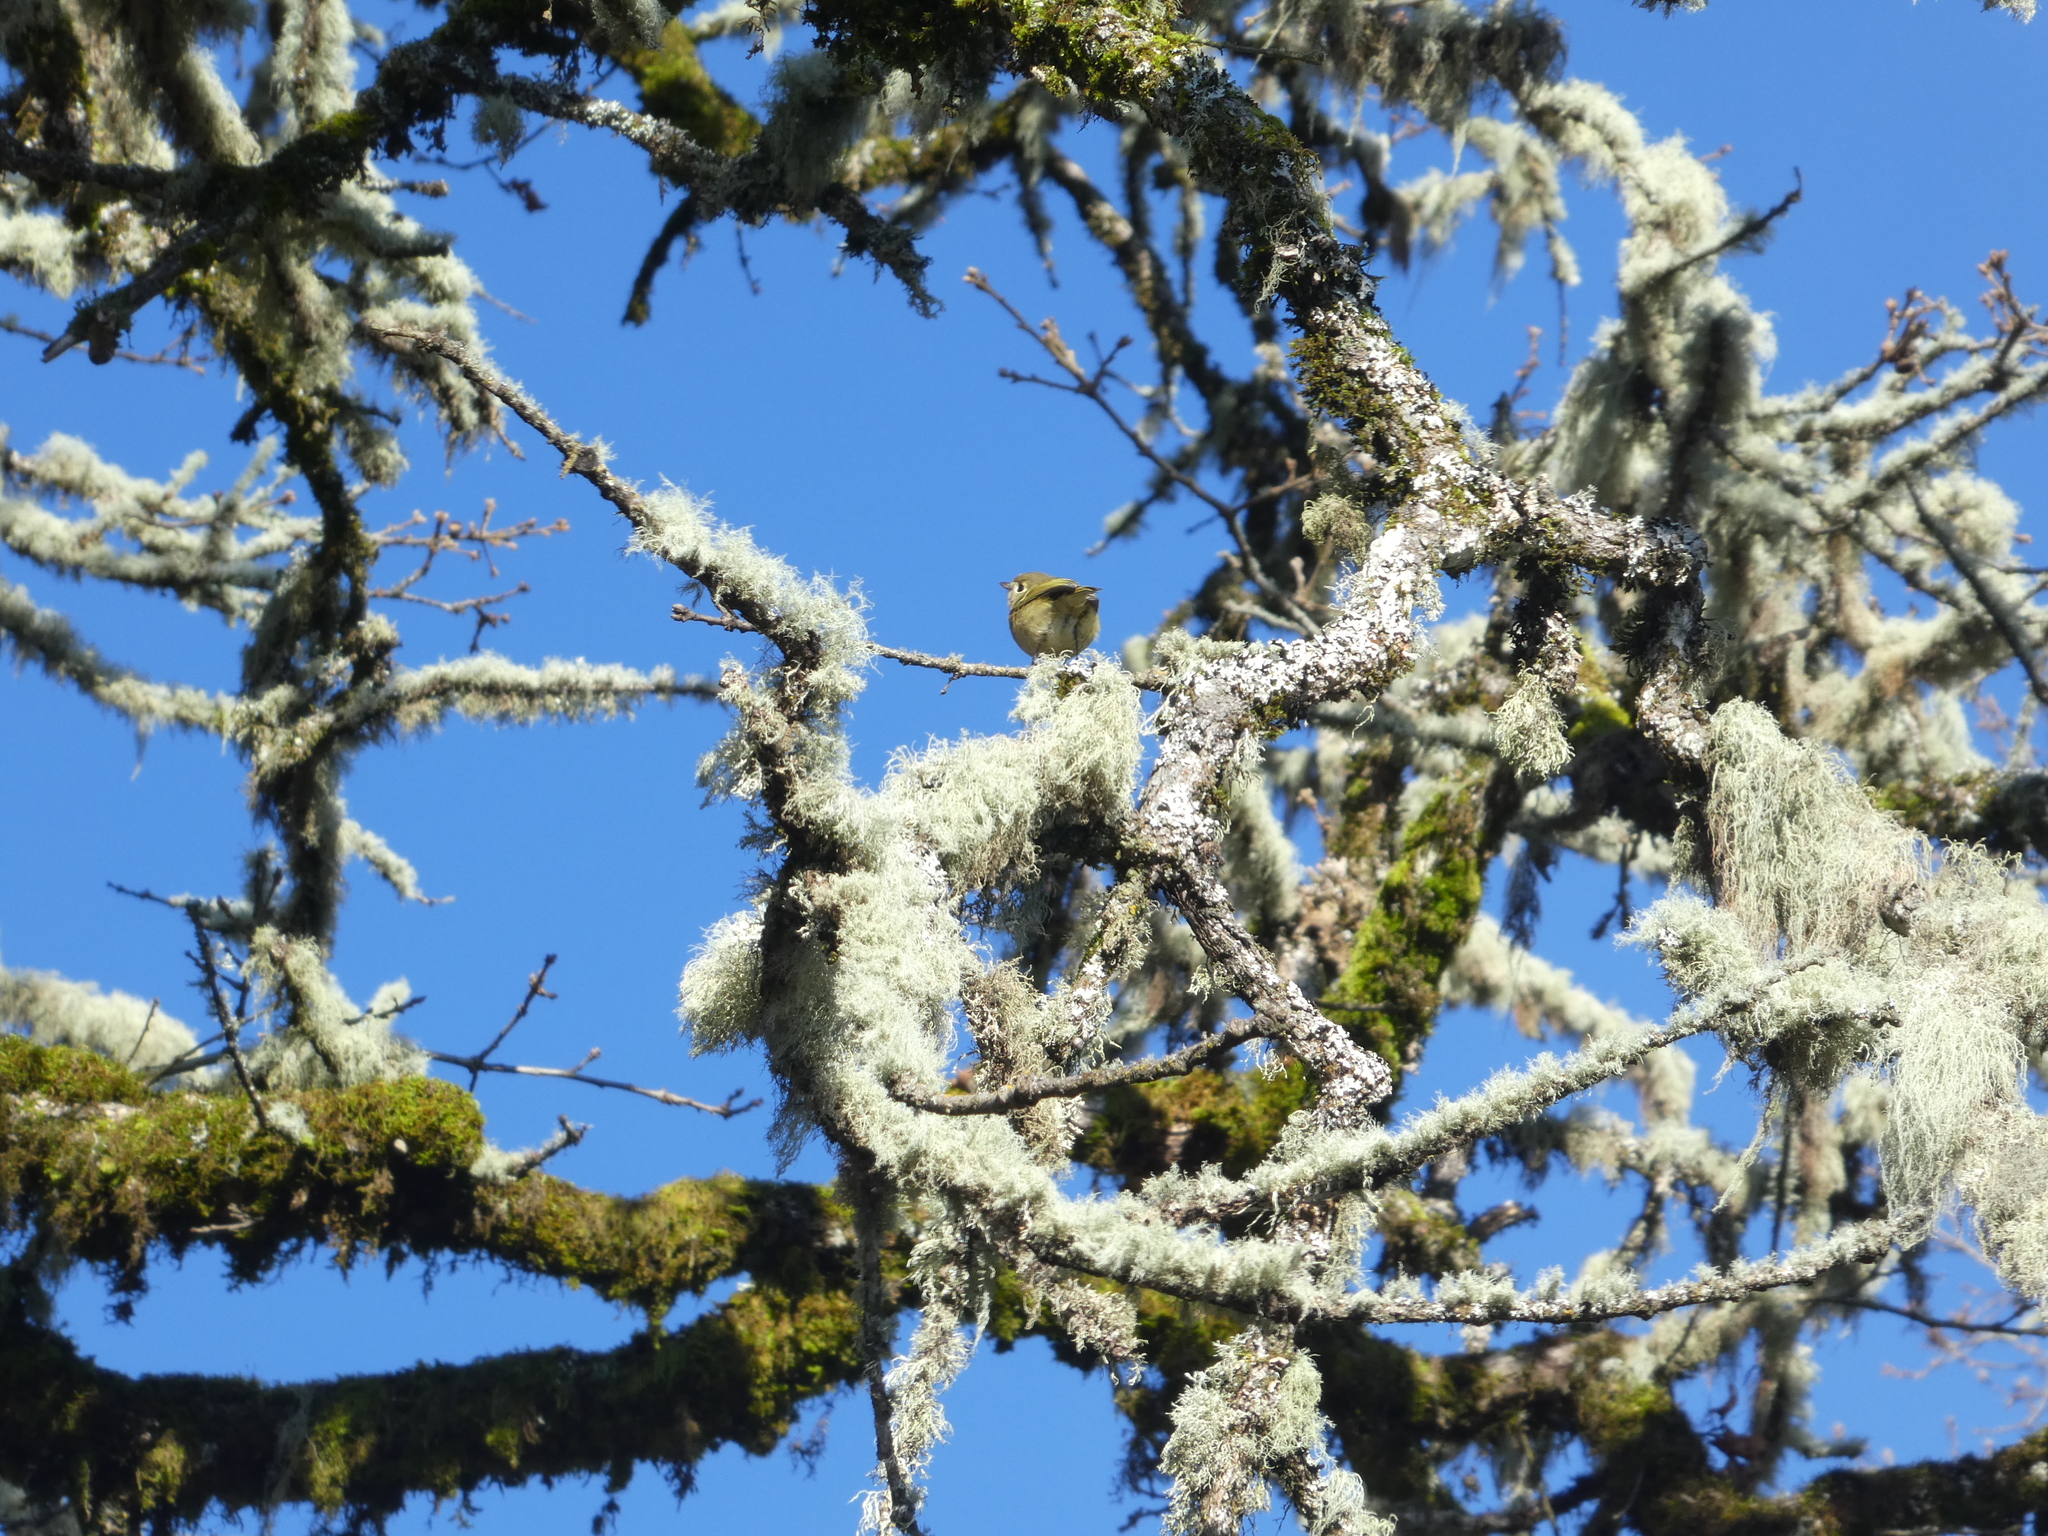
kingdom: Animalia
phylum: Chordata
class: Aves
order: Passeriformes
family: Vireonidae
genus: Vireo
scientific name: Vireo huttoni
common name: Hutton's vireo
